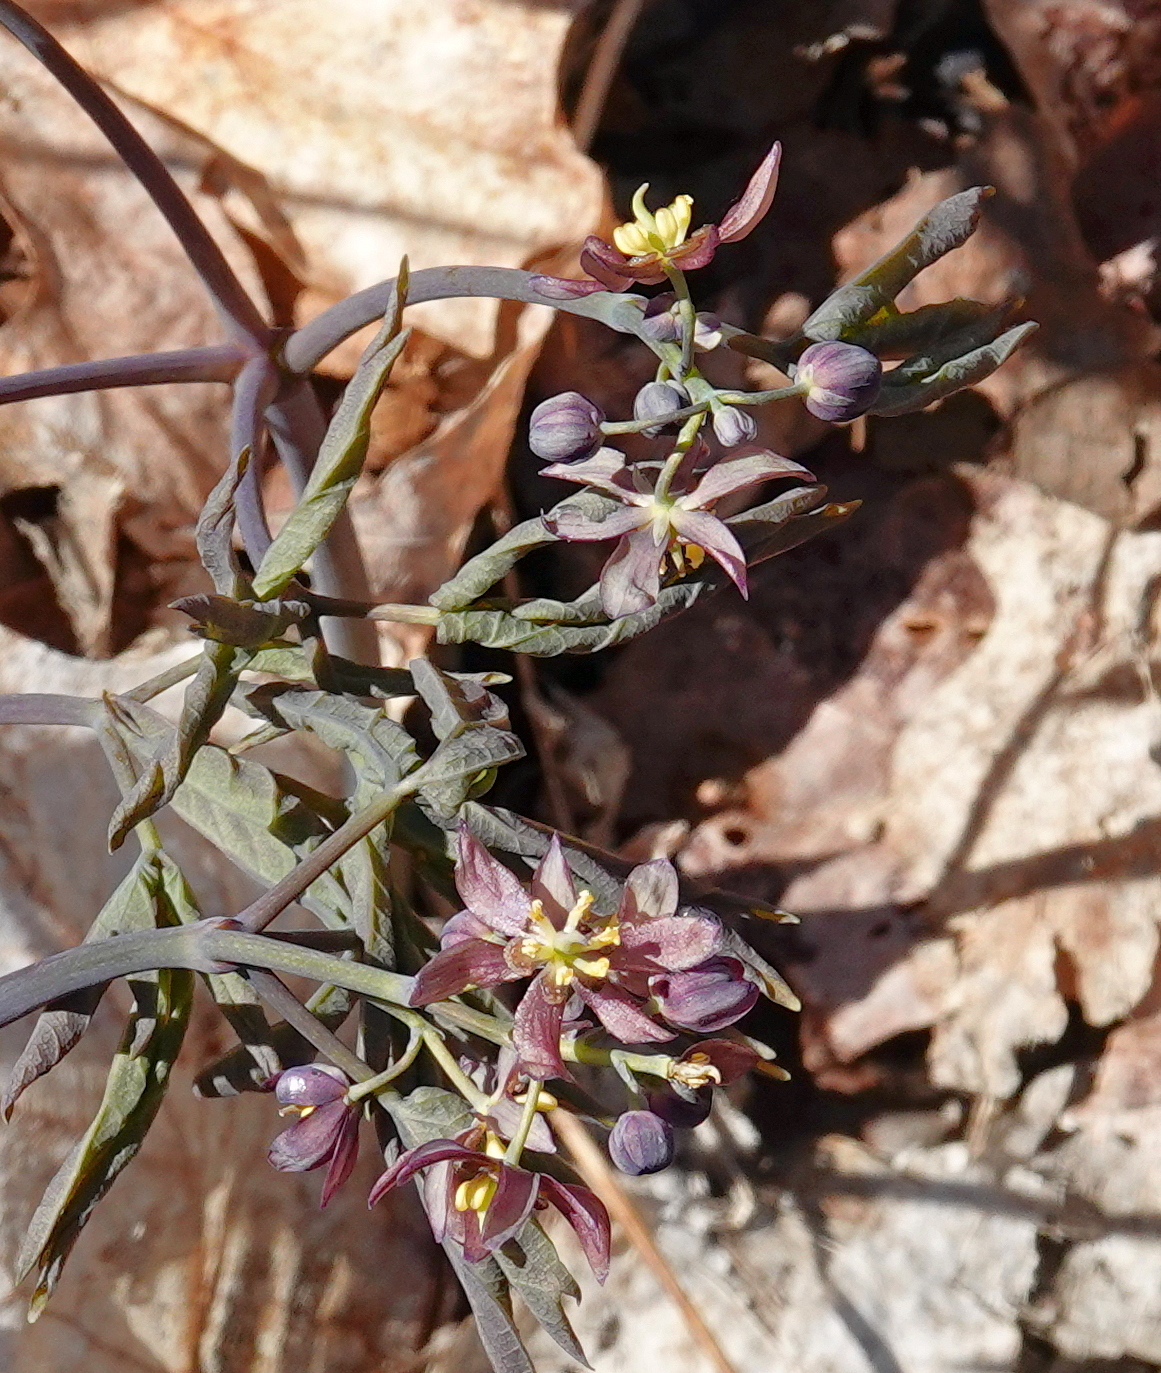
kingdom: Plantae
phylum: Tracheophyta
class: Magnoliopsida
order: Ranunculales
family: Berberidaceae
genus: Caulophyllum
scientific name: Caulophyllum giganteum
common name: Blue cohosh
